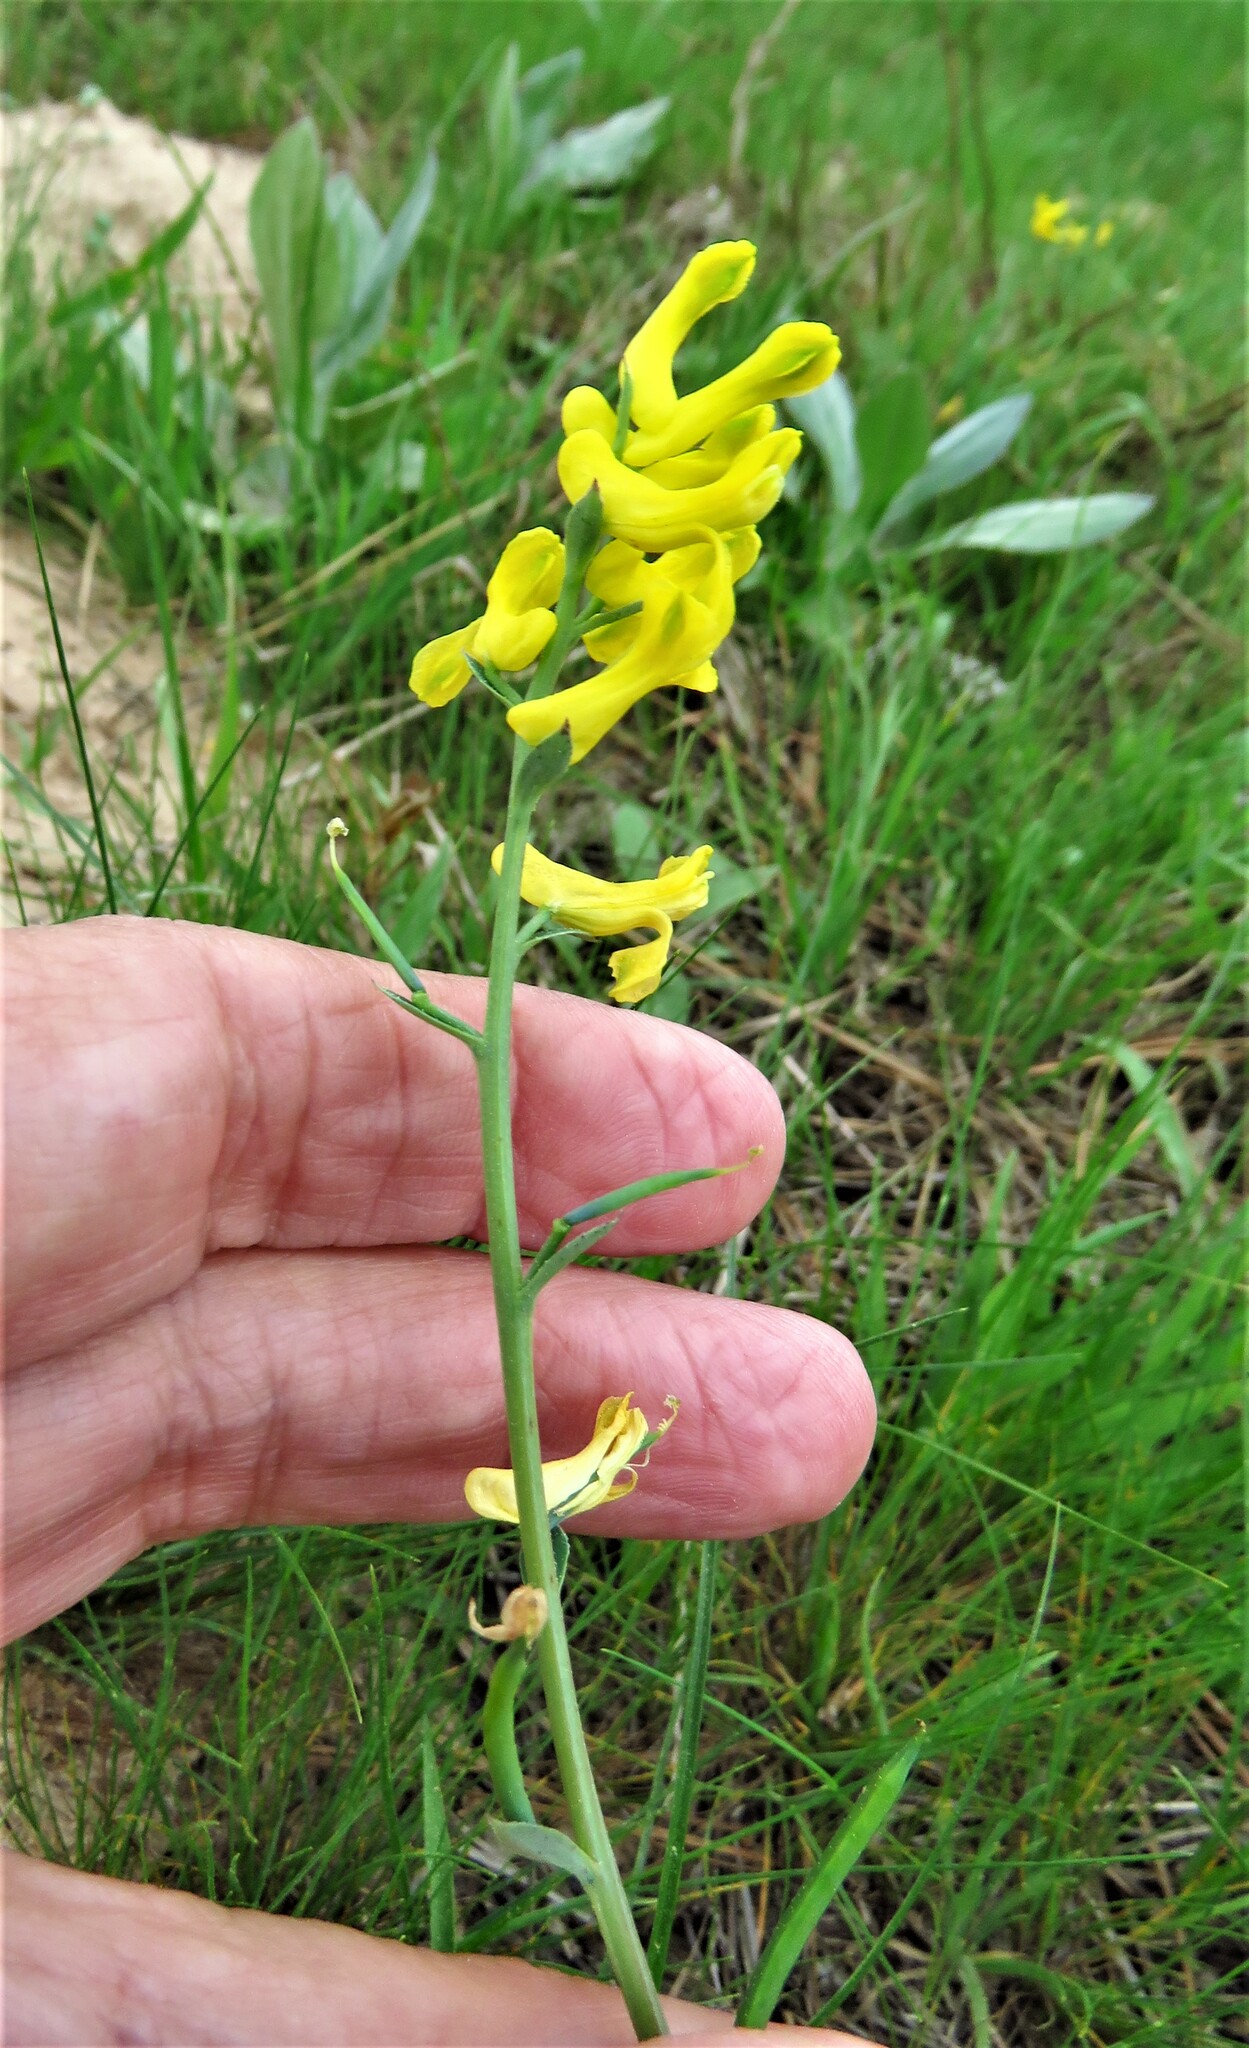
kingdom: Plantae
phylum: Tracheophyta
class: Magnoliopsida
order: Ranunculales
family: Papaveraceae
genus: Corydalis
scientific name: Corydalis aurea
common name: Golden corydalis
